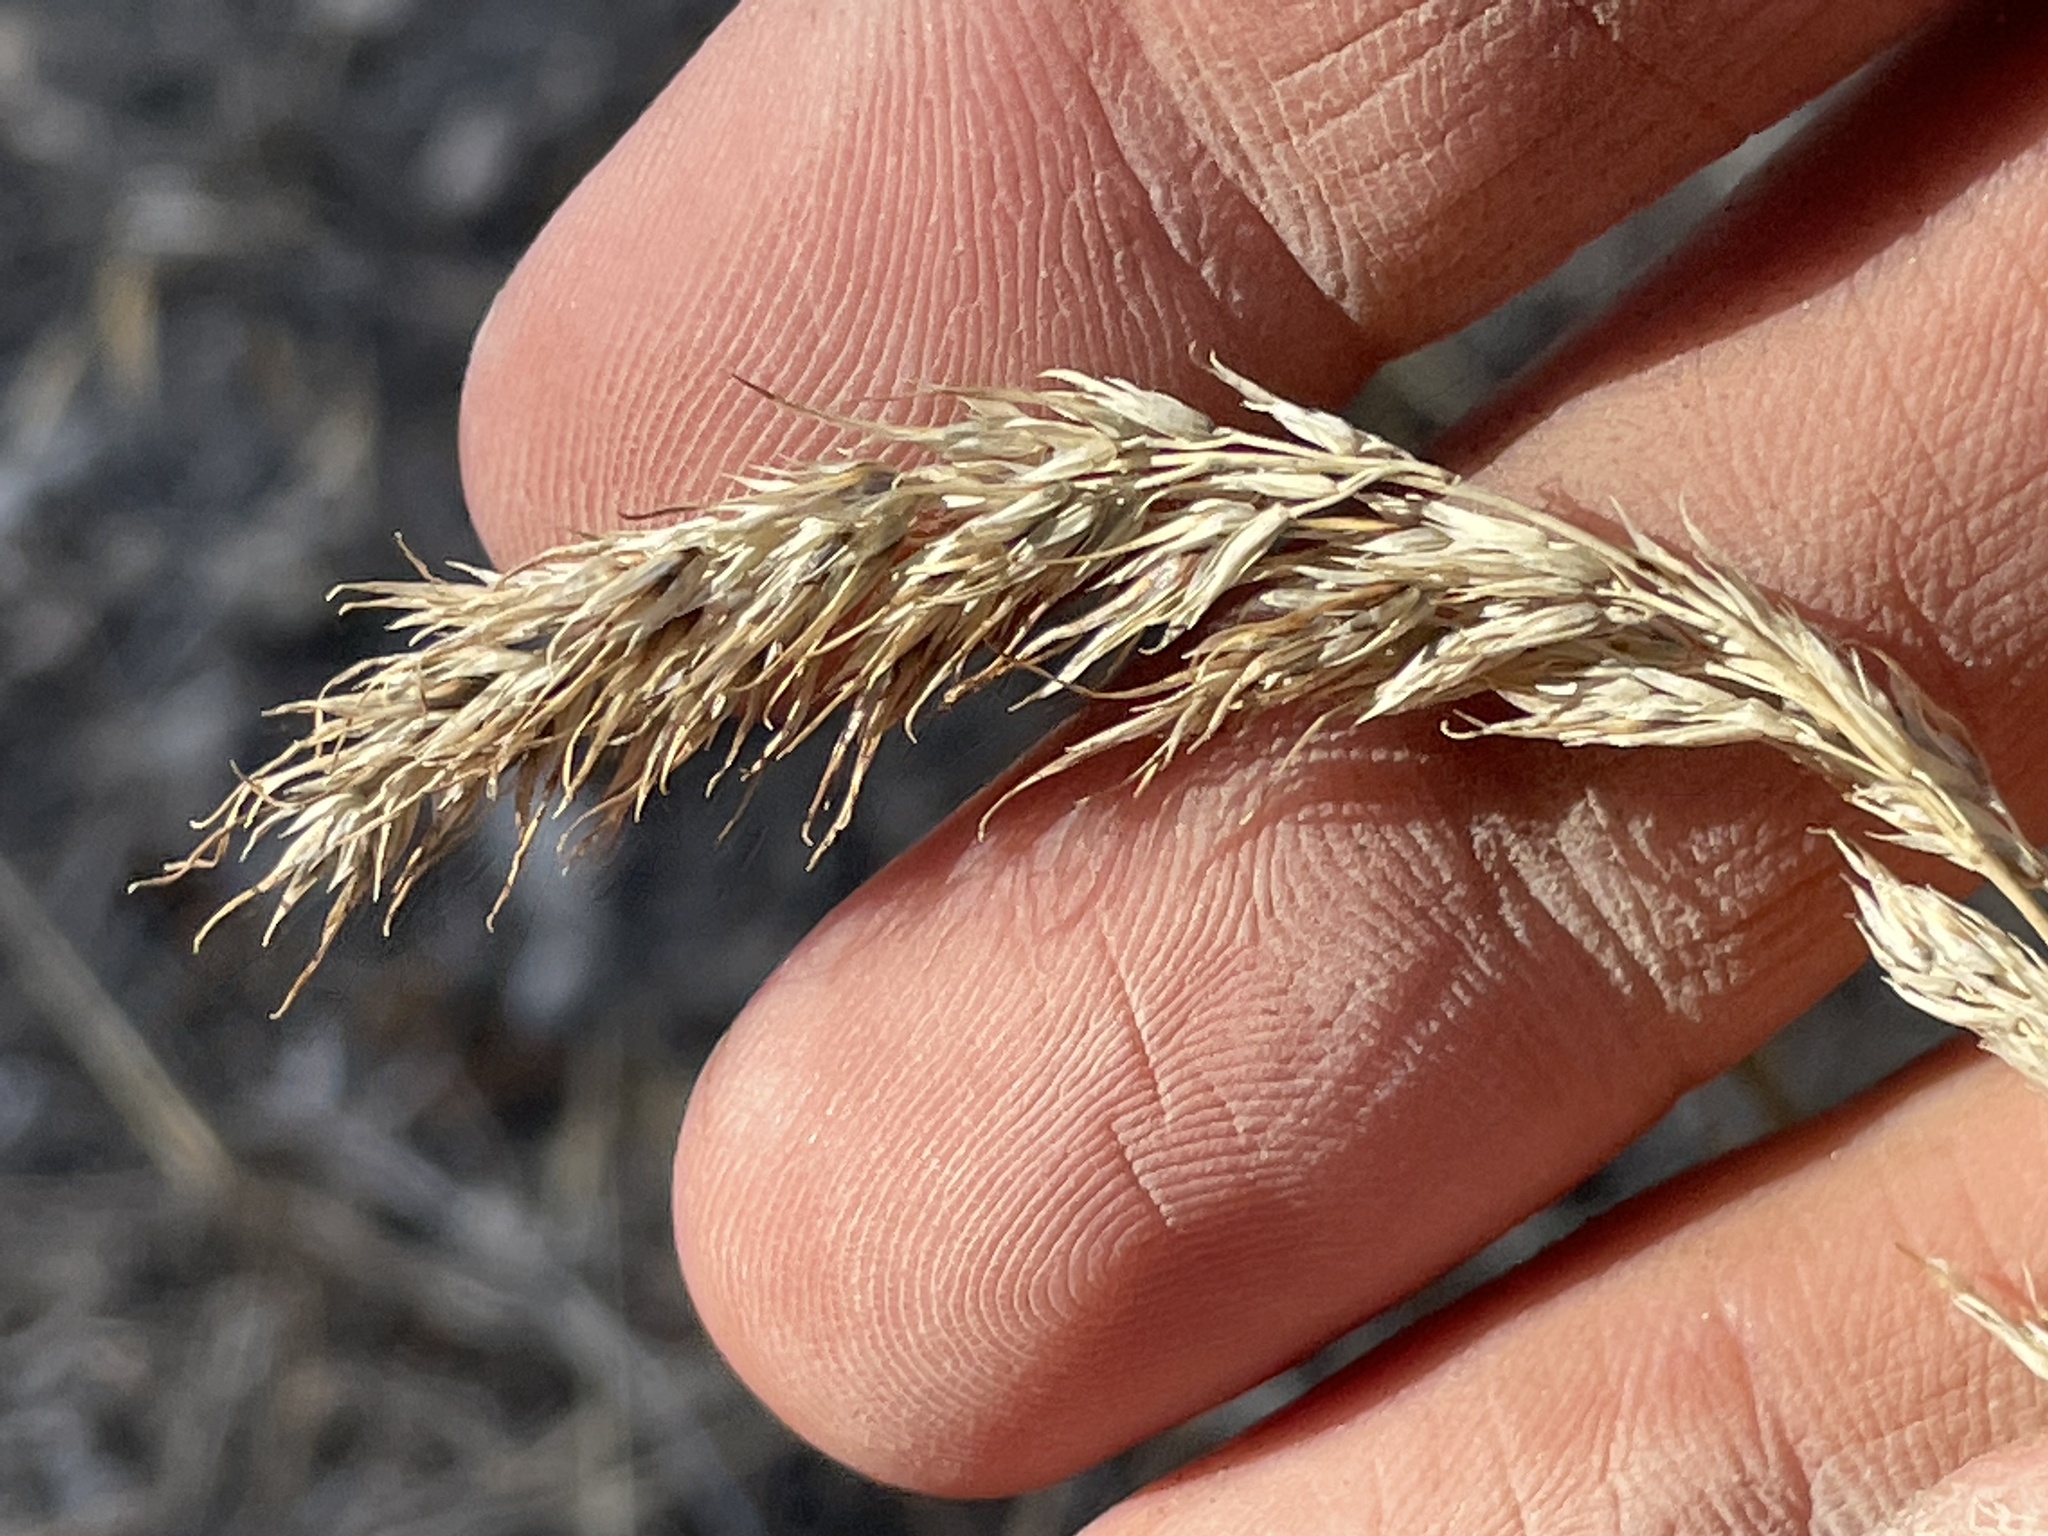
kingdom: Plantae
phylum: Tracheophyta
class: Liliopsida
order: Poales
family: Poaceae
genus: Poa
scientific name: Poa bulbosa
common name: Bulbous bluegrass
